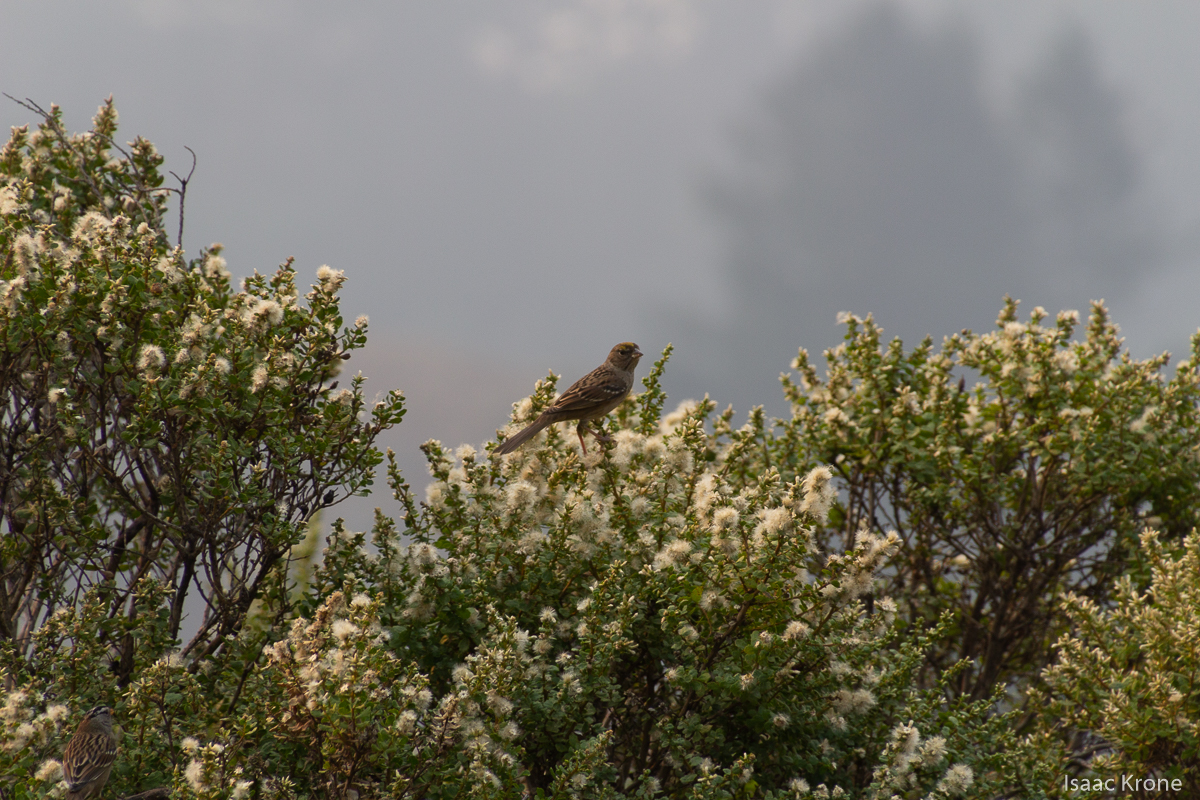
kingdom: Animalia
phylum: Chordata
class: Aves
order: Passeriformes
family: Passerellidae
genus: Zonotrichia
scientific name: Zonotrichia atricapilla
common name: Golden-crowned sparrow
